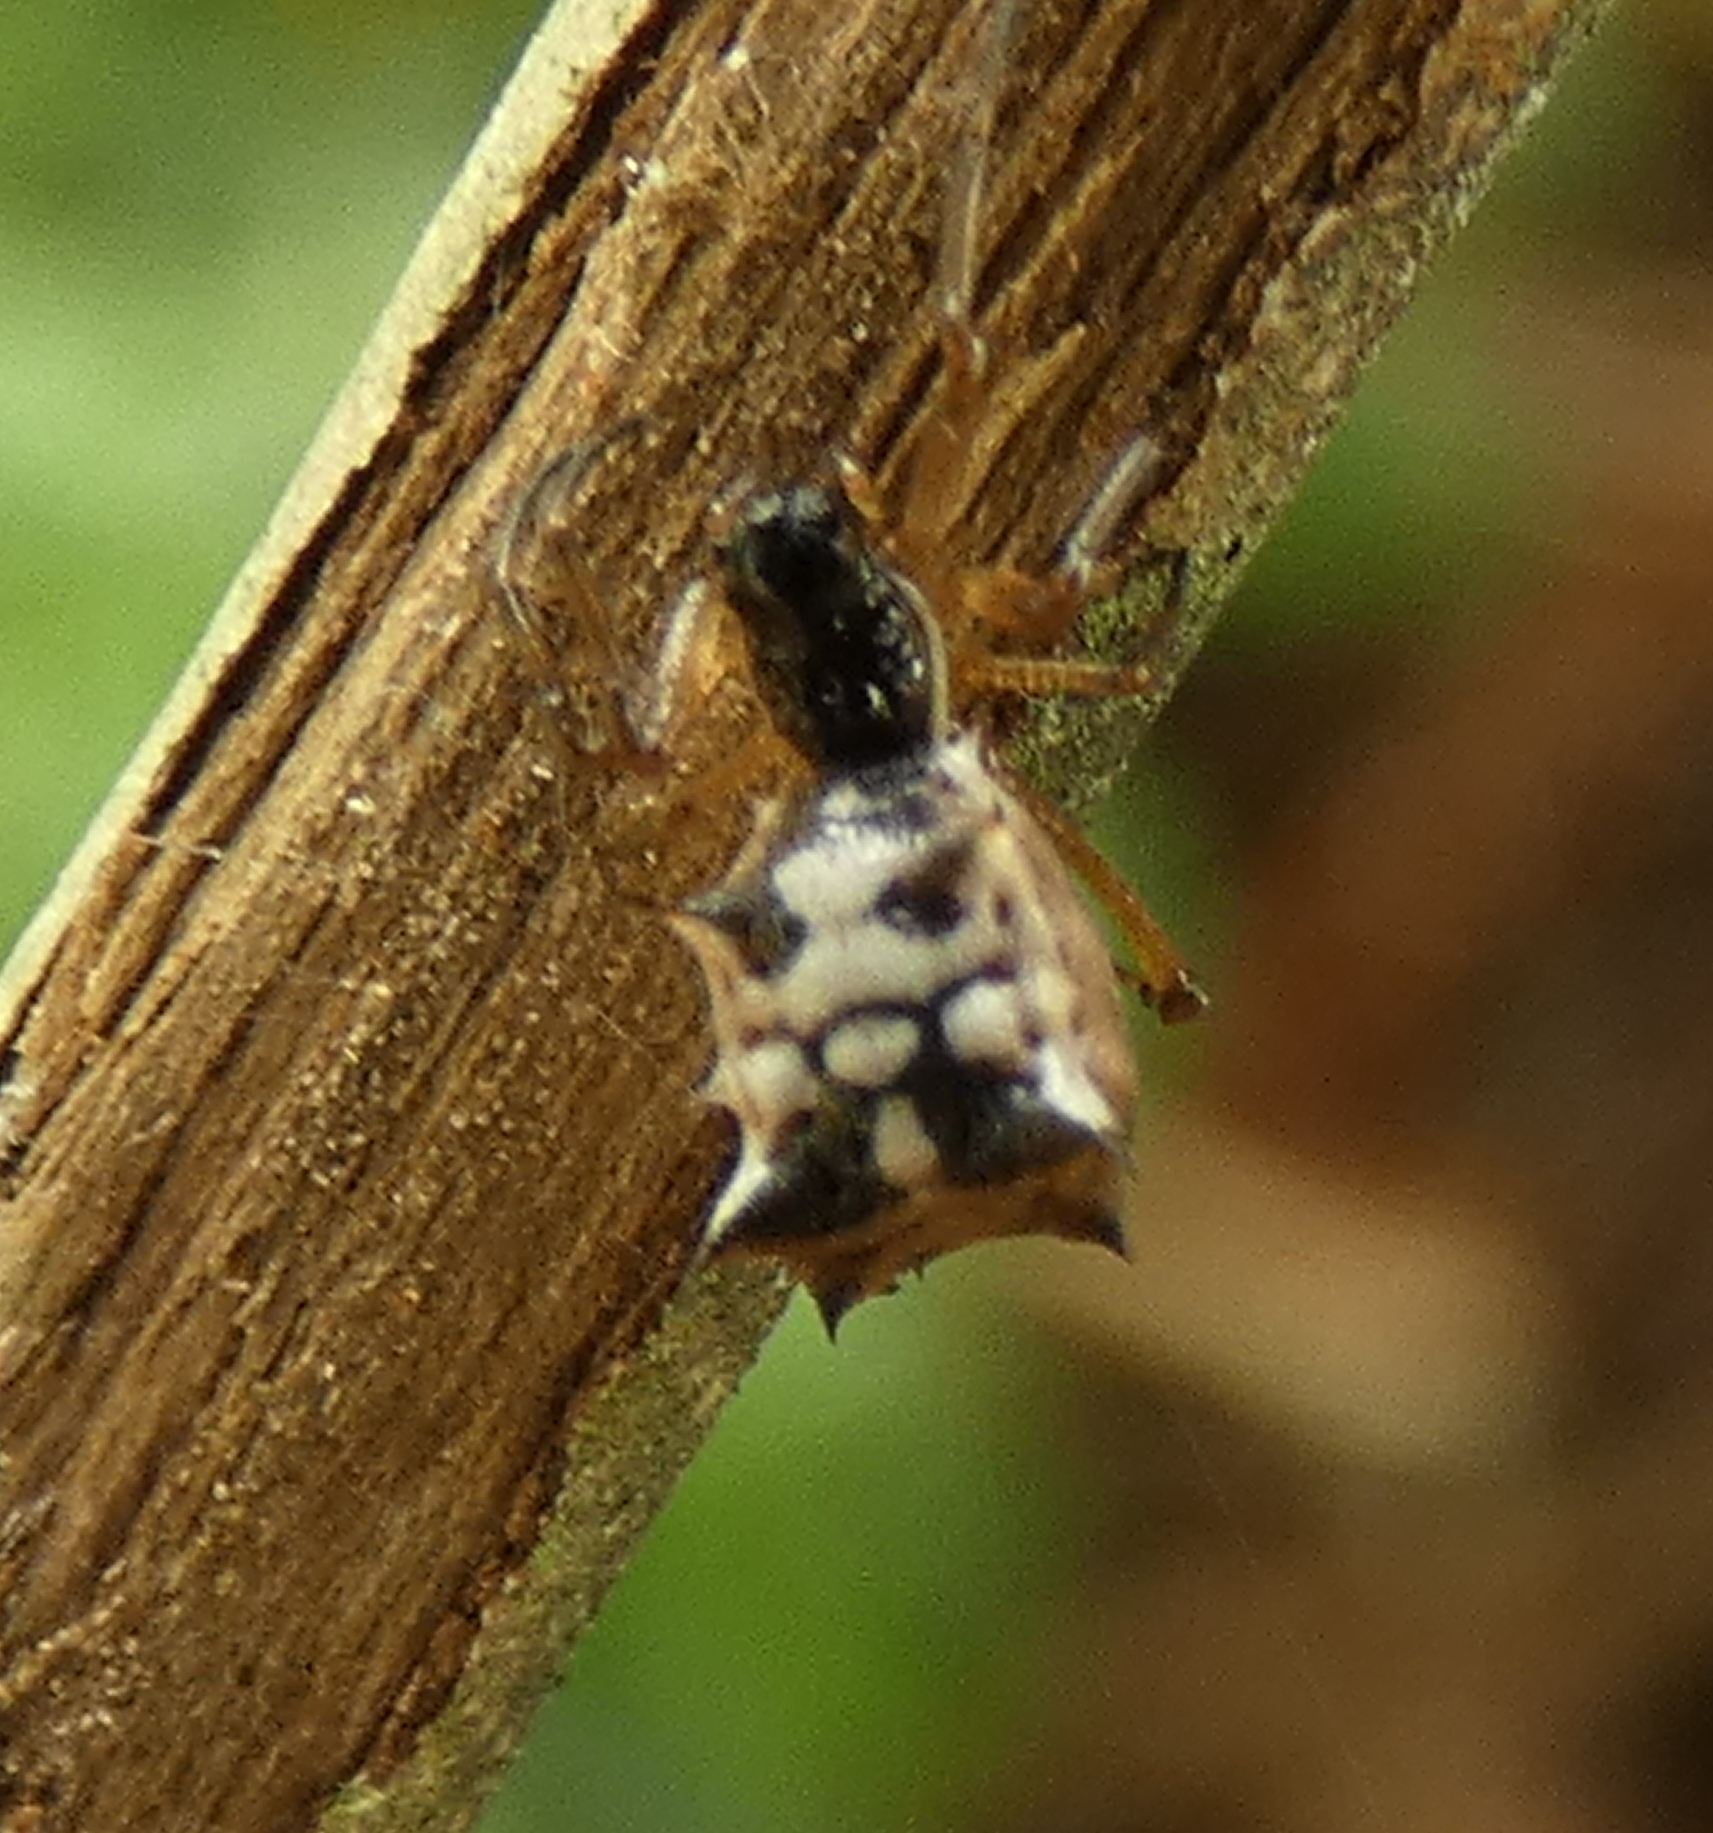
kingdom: Animalia
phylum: Arthropoda
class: Arachnida
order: Araneae
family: Araneidae
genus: Micrathena
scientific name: Micrathena picta
